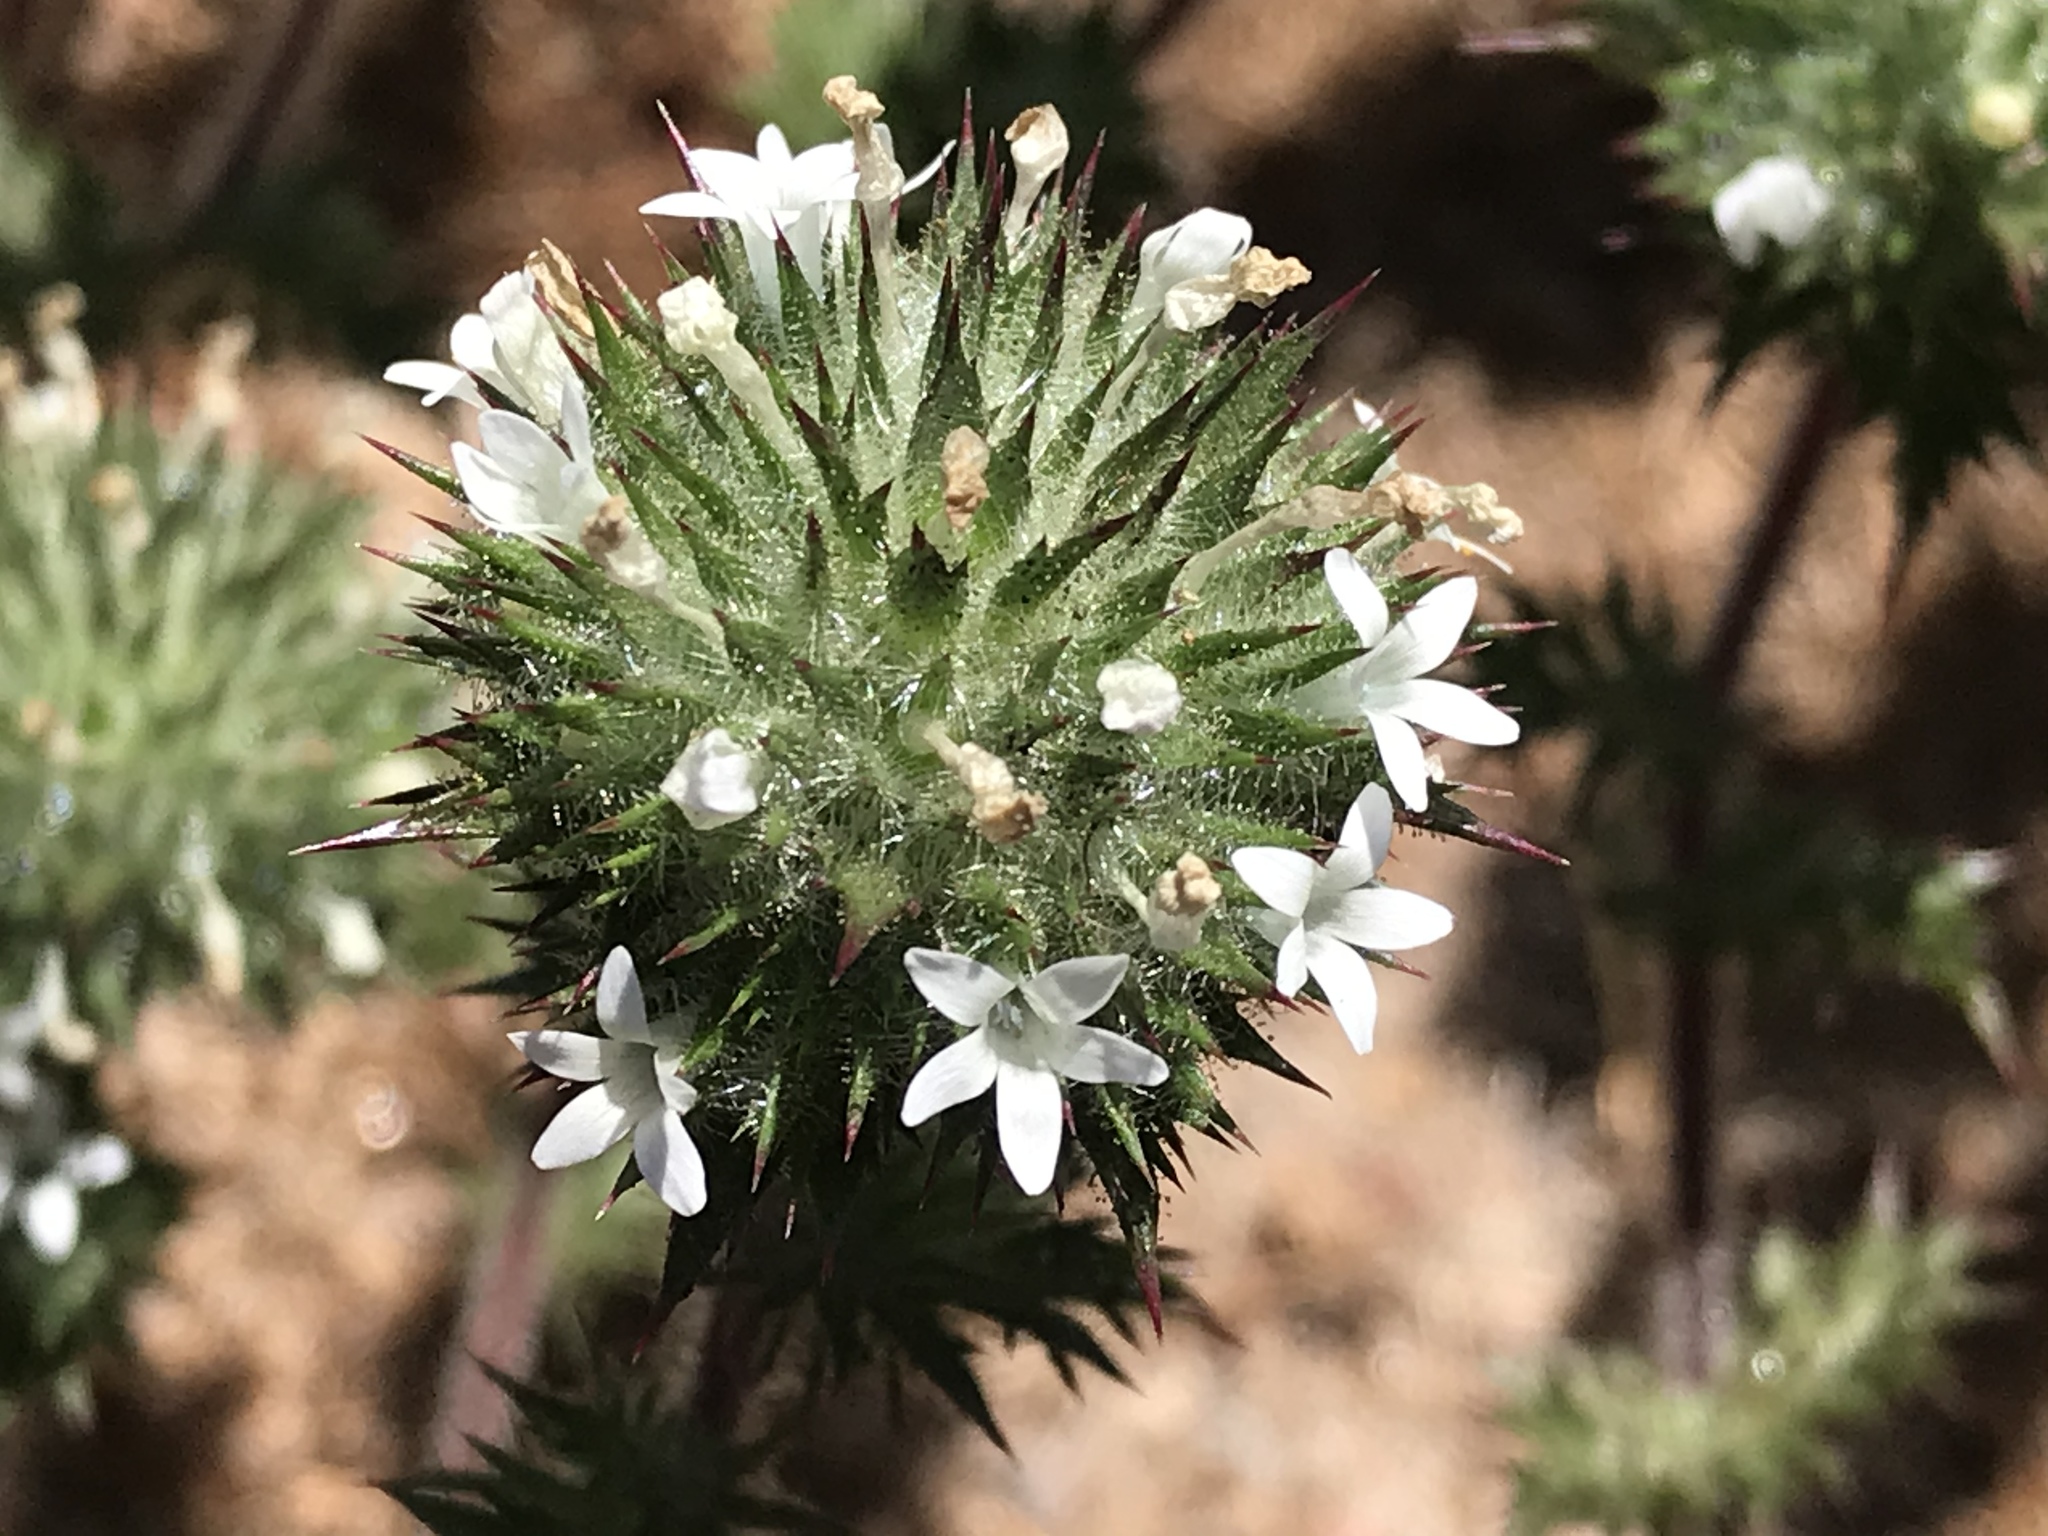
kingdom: Plantae
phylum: Tracheophyta
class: Magnoliopsida
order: Ericales
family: Polemoniaceae
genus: Navarretia
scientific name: Navarretia squarrosa
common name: Skunkweed
